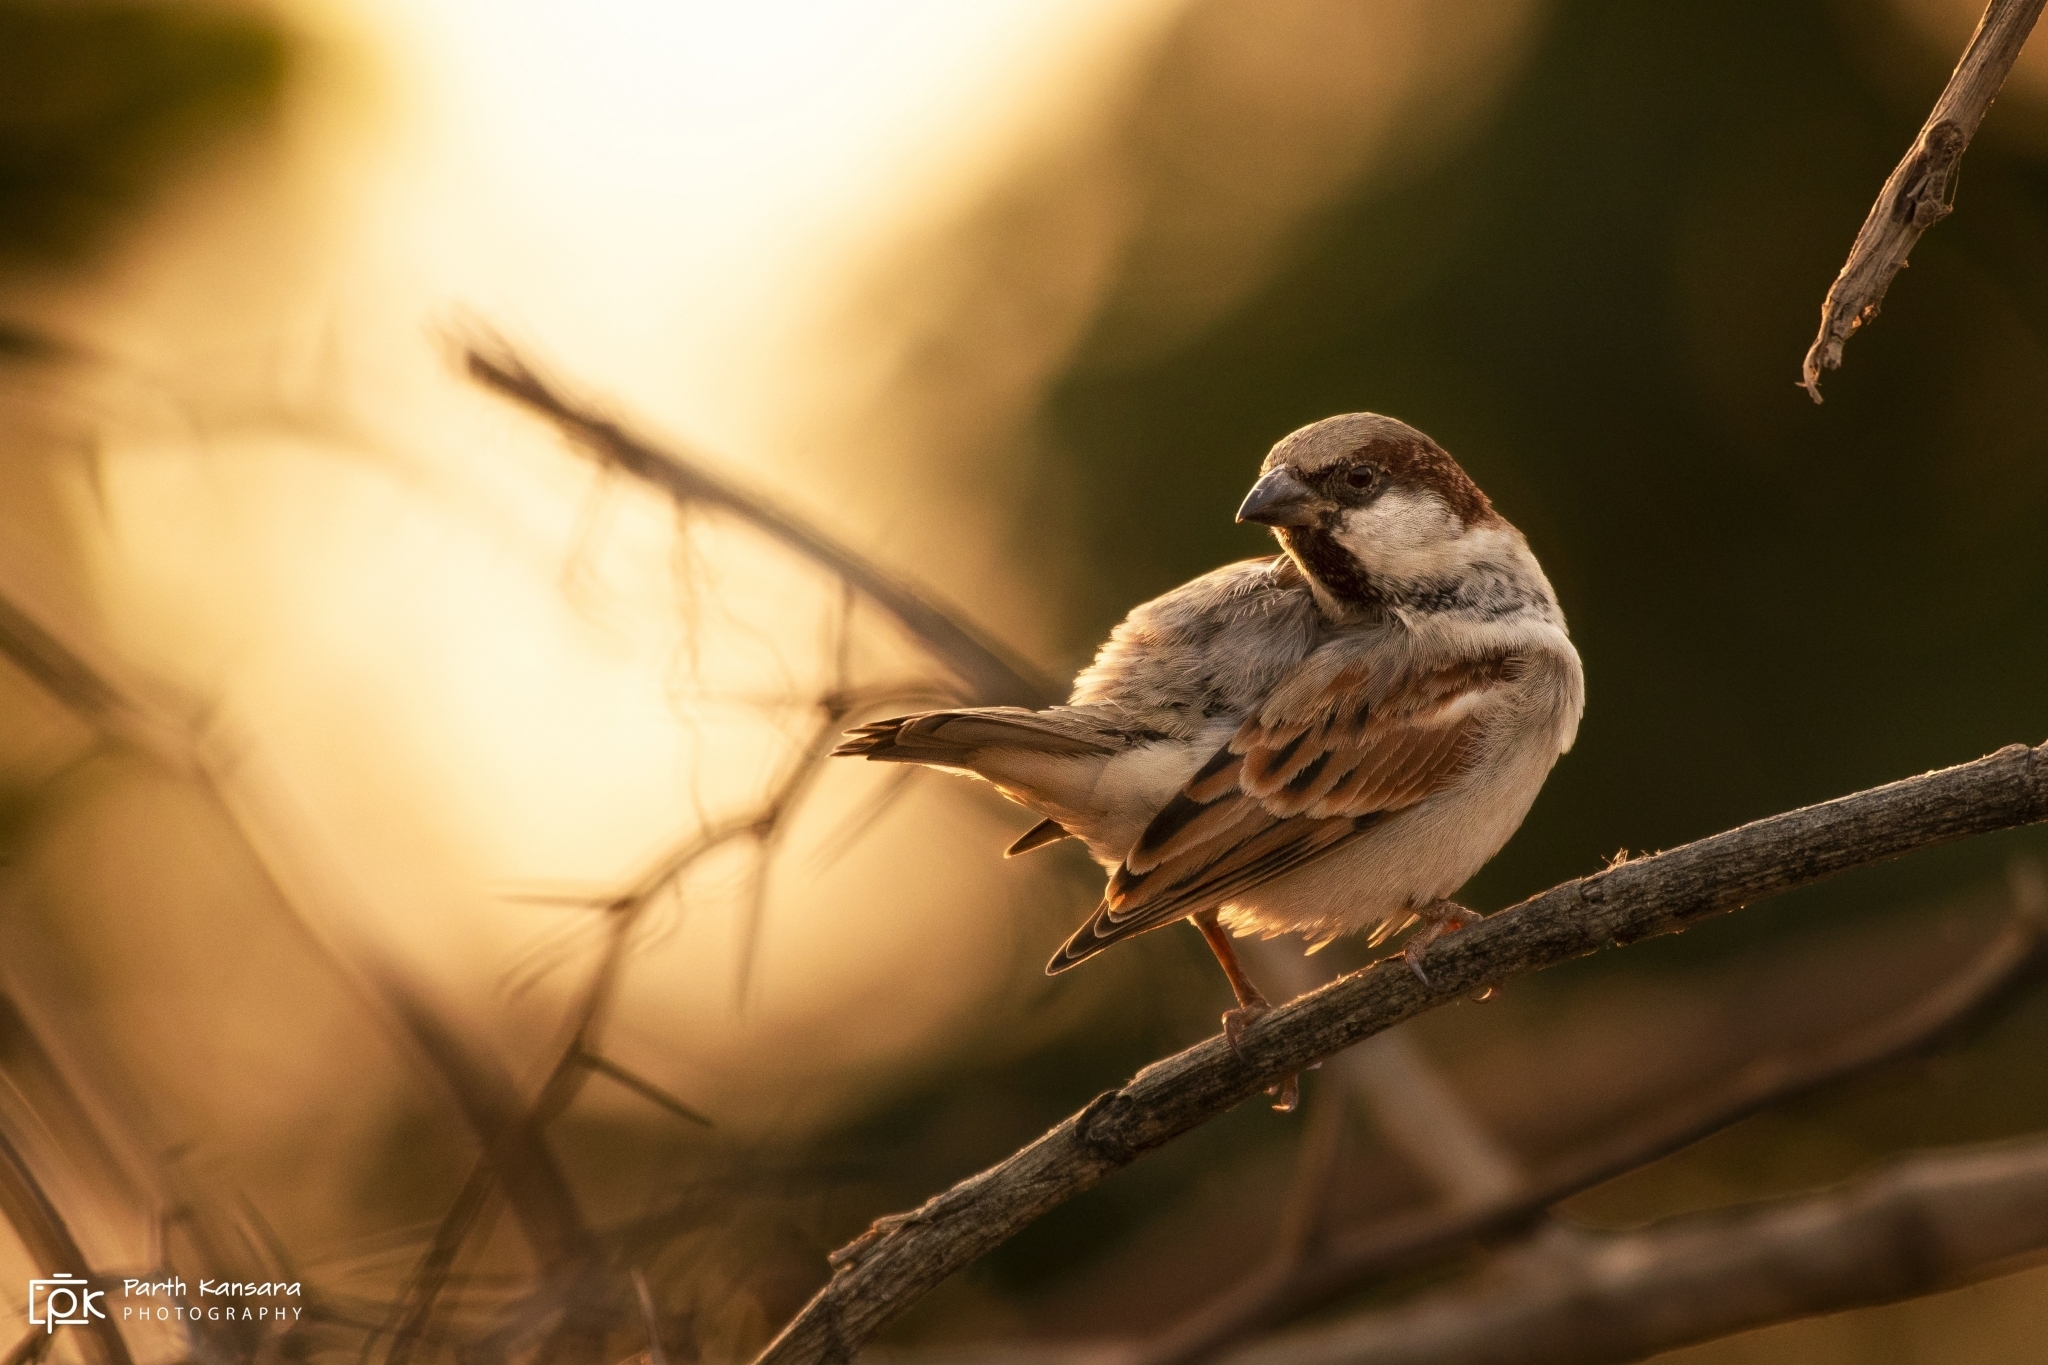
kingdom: Animalia
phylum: Chordata
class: Aves
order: Passeriformes
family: Passeridae
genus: Passer
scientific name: Passer domesticus
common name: House sparrow
